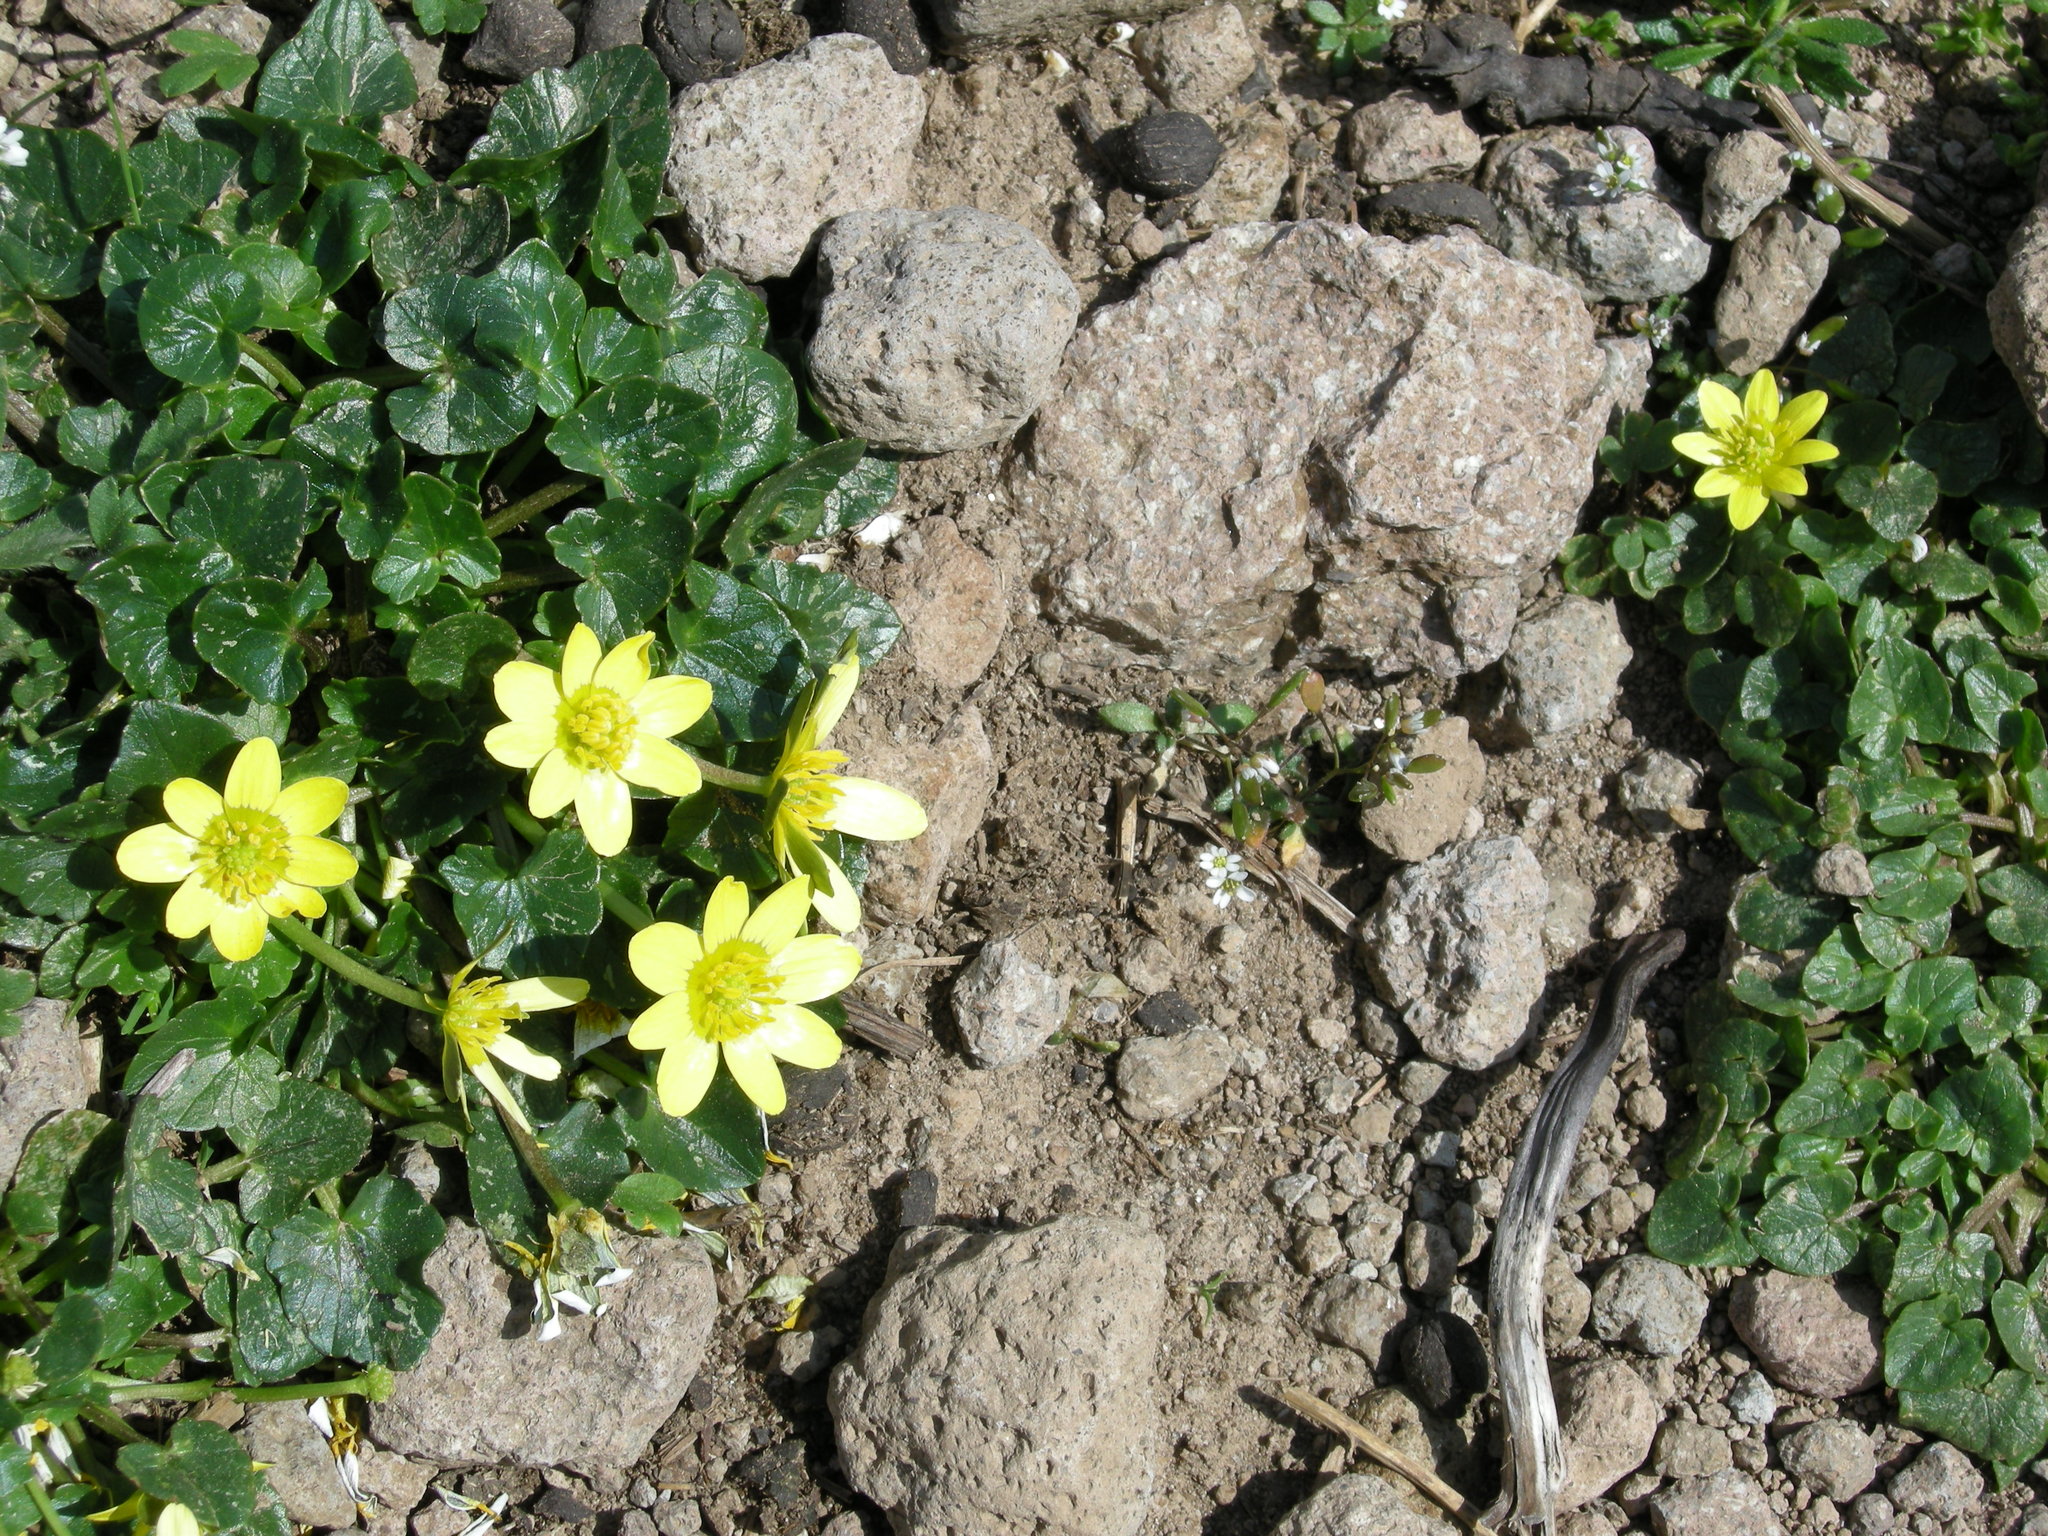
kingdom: Plantae
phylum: Tracheophyta
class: Magnoliopsida
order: Ranunculales
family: Ranunculaceae
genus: Ficaria
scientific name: Ficaria verna
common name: Lesser celandine
